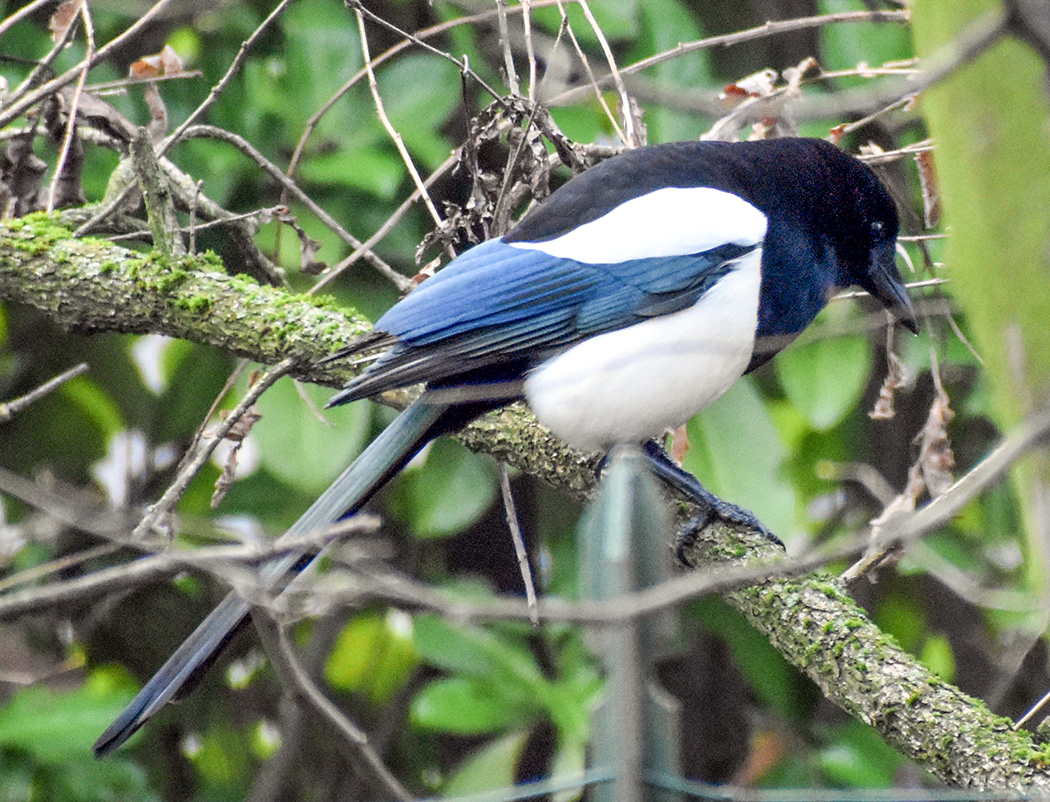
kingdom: Animalia
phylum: Chordata
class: Aves
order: Passeriformes
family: Corvidae
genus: Pica
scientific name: Pica pica
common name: Eurasian magpie
